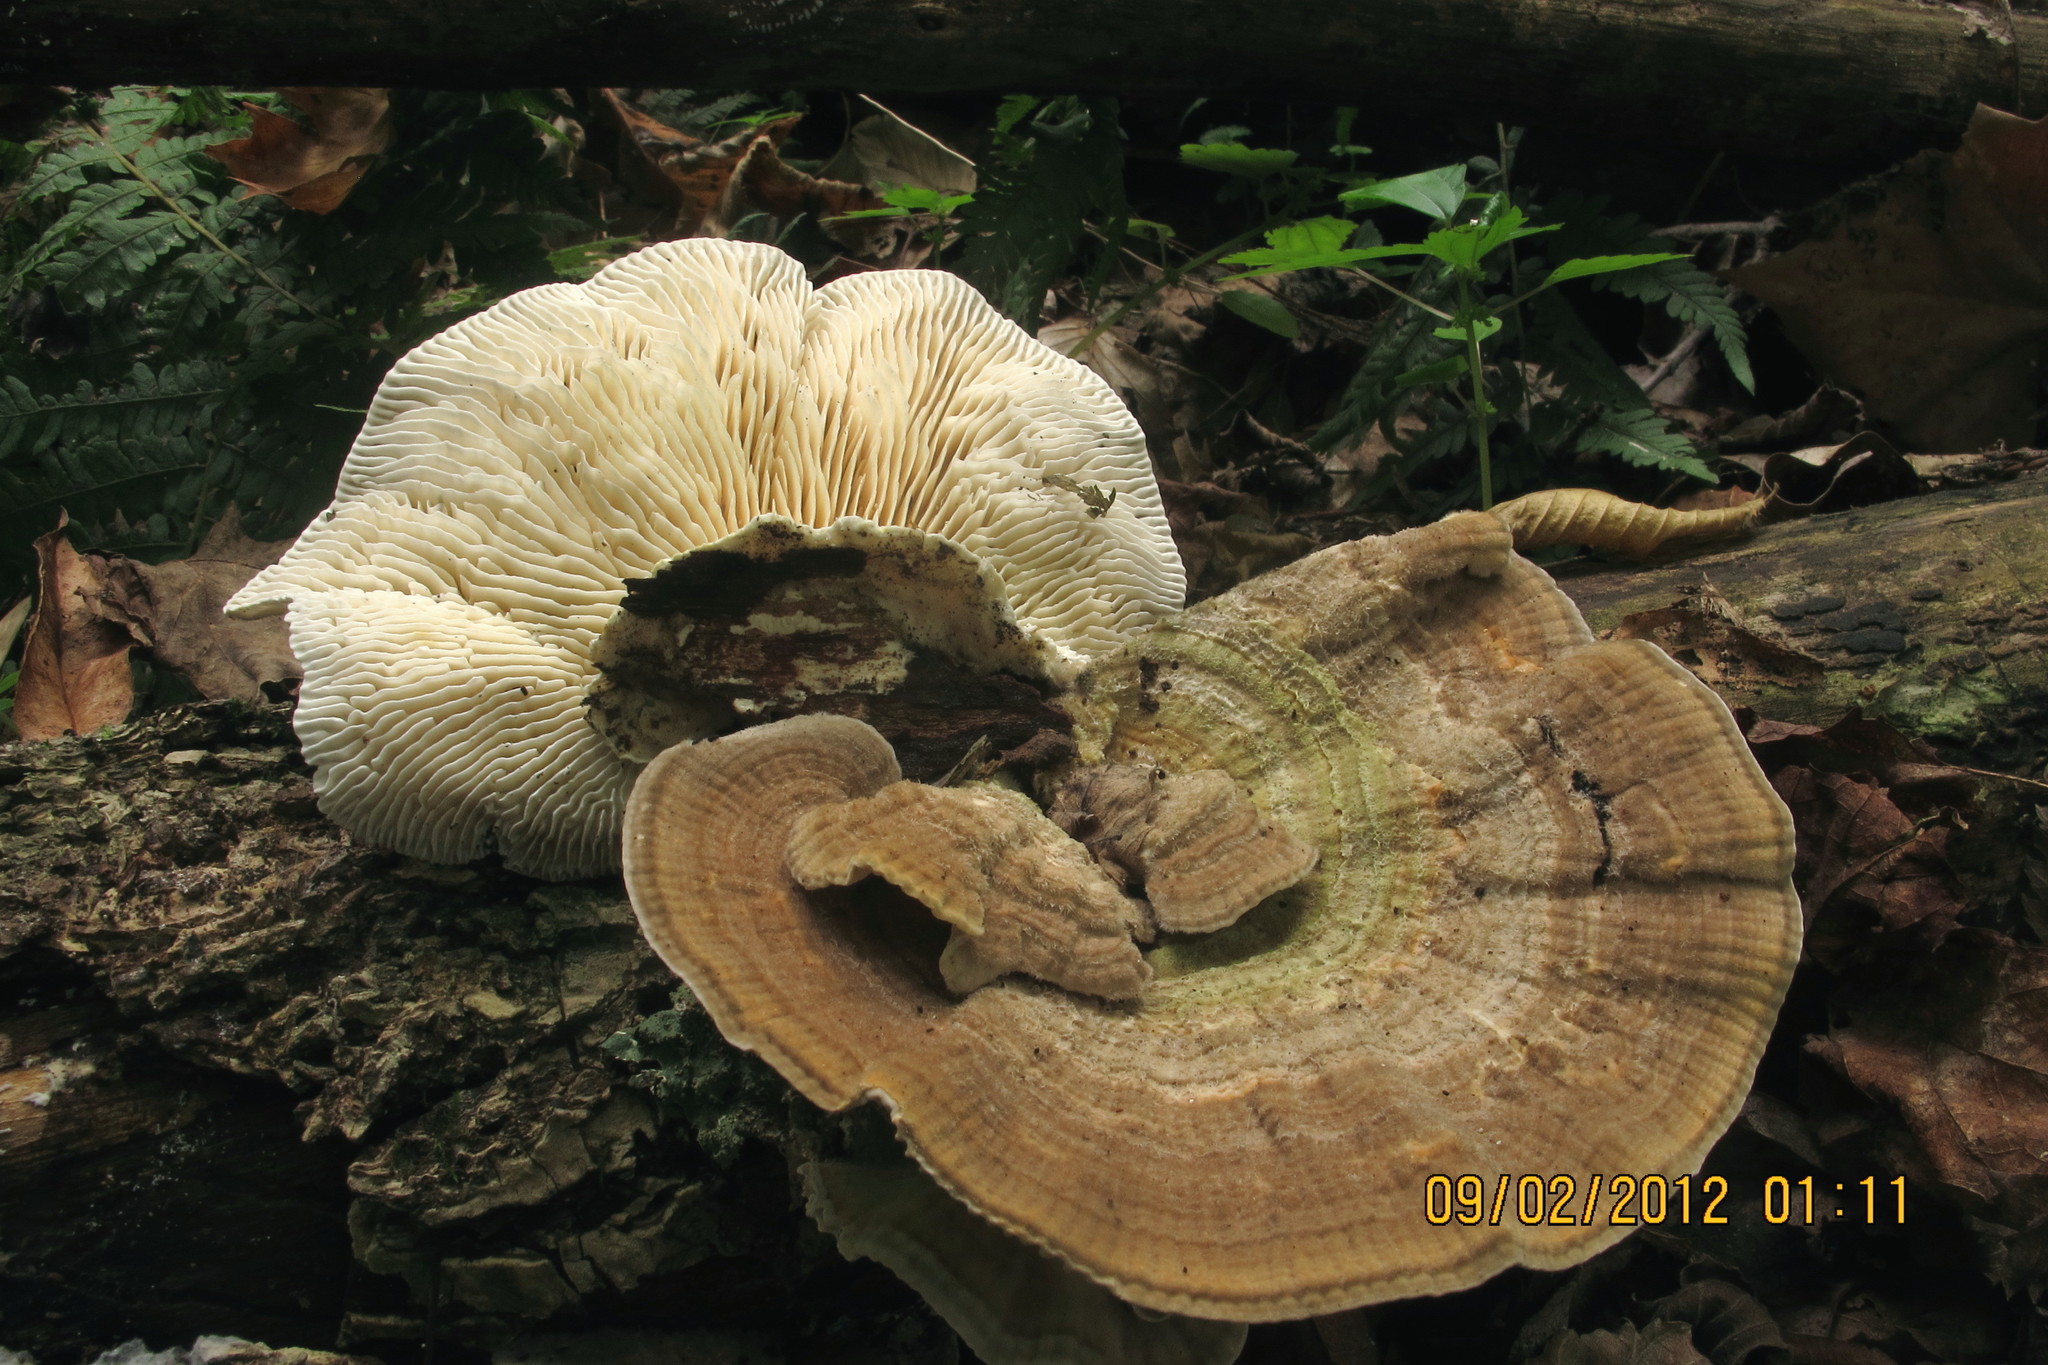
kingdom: Fungi
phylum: Basidiomycota
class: Agaricomycetes
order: Polyporales
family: Polyporaceae
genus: Lenzites
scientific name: Lenzites betulinus
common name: Birch mazegill
